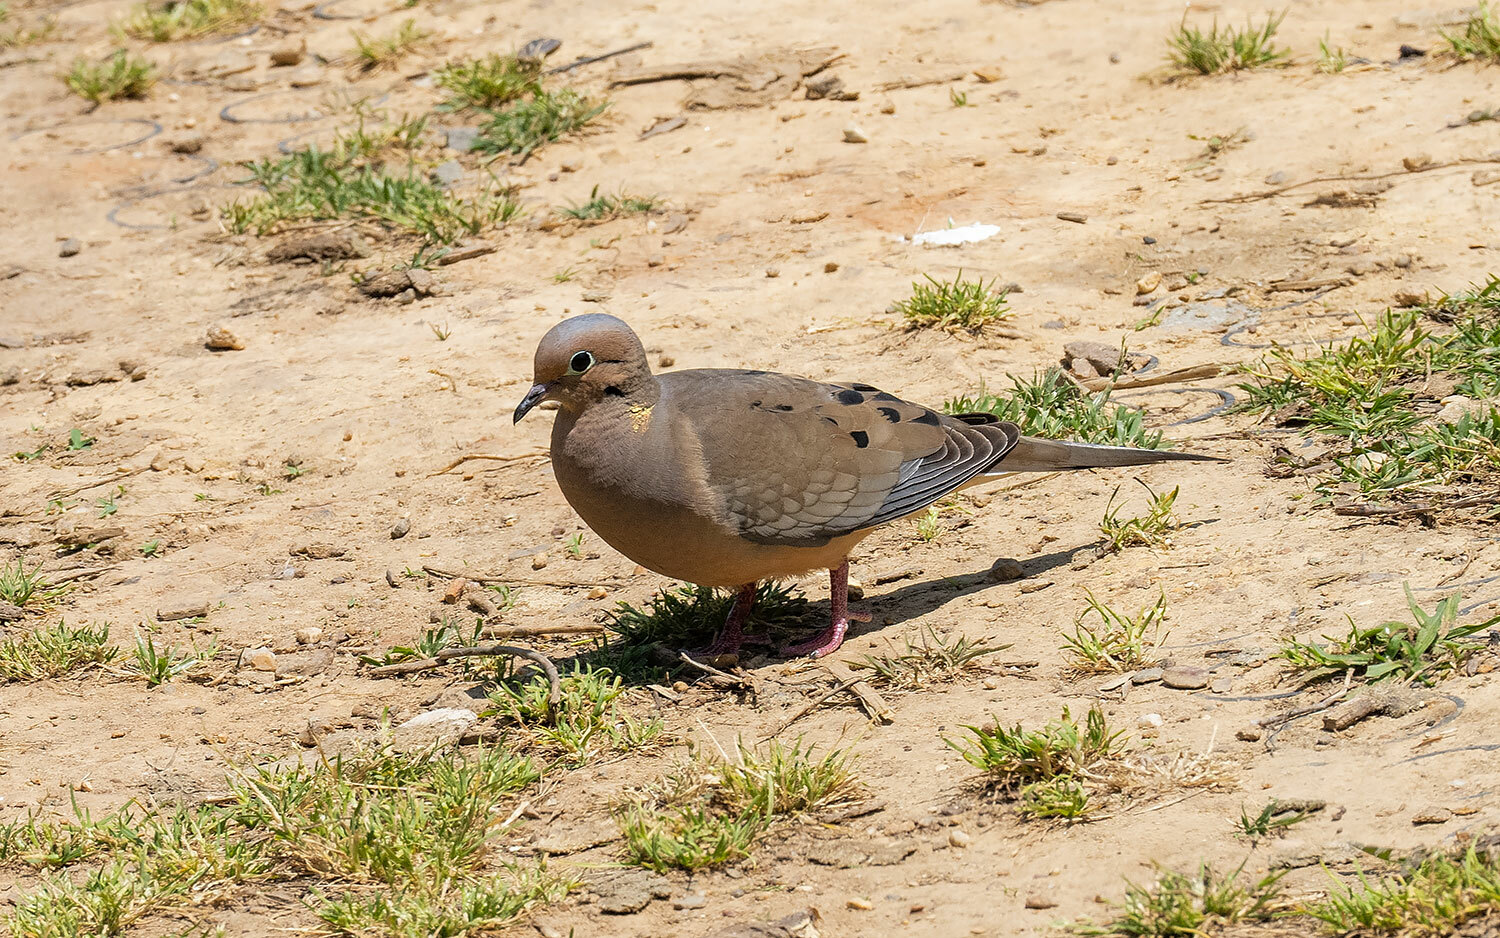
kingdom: Animalia
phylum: Chordata
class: Aves
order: Columbiformes
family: Columbidae
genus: Zenaida
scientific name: Zenaida macroura
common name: Mourning dove
